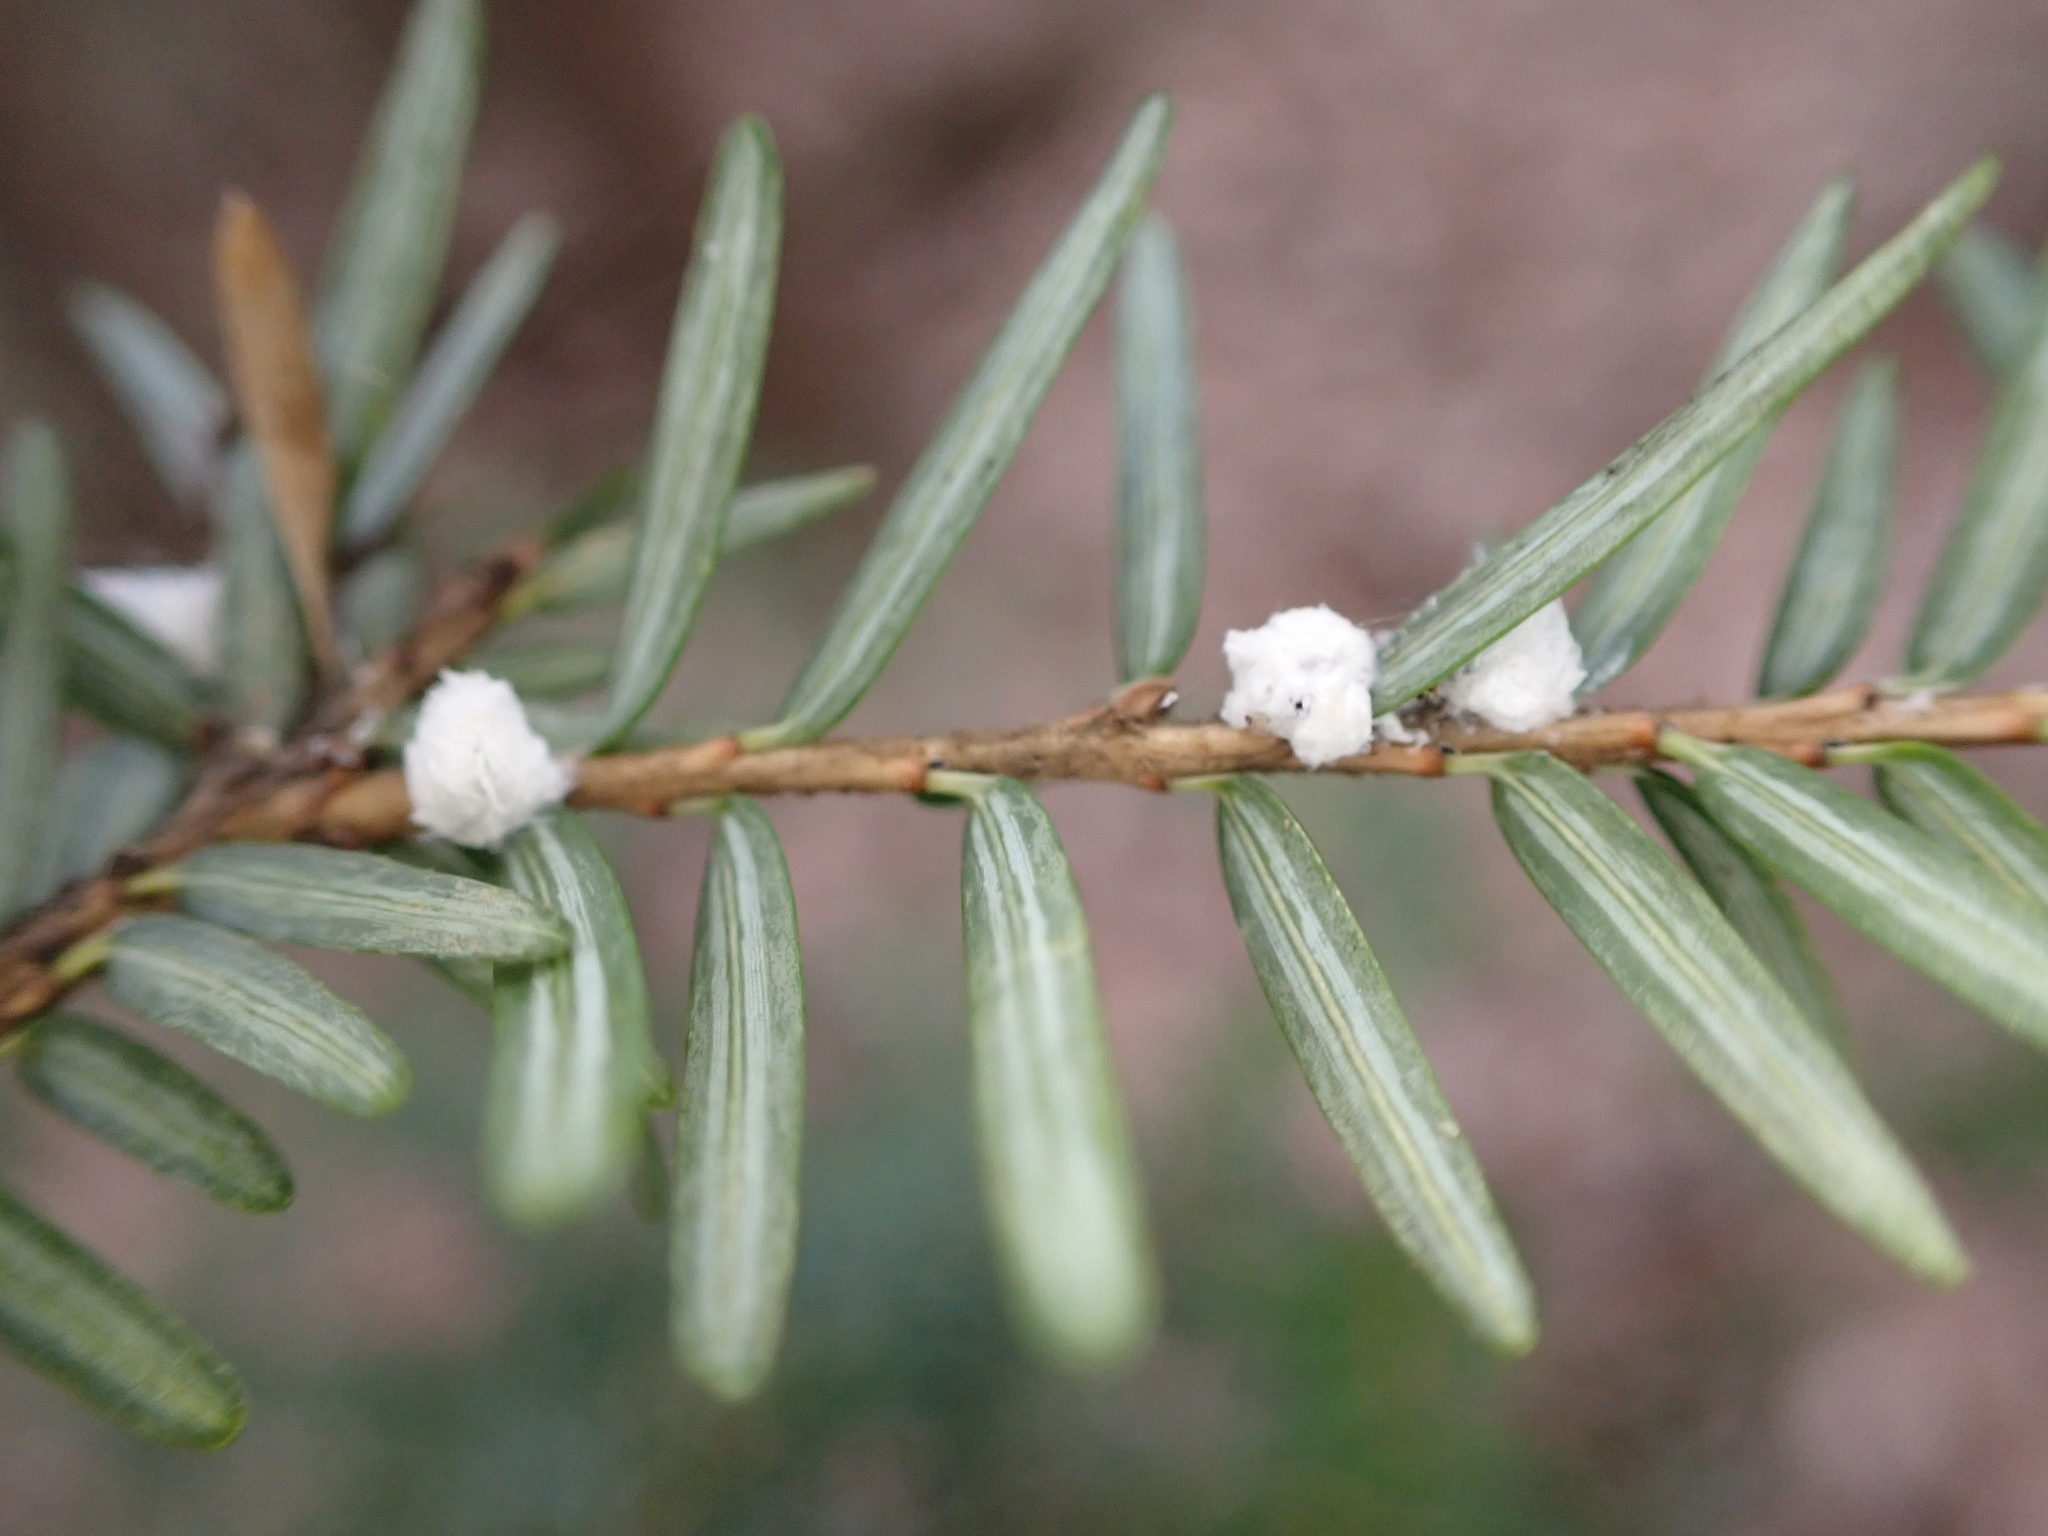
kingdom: Animalia
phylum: Arthropoda
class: Insecta
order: Hemiptera
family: Adelgidae
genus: Adelges
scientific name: Adelges tsugae
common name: Hemlock woolly adelgid
